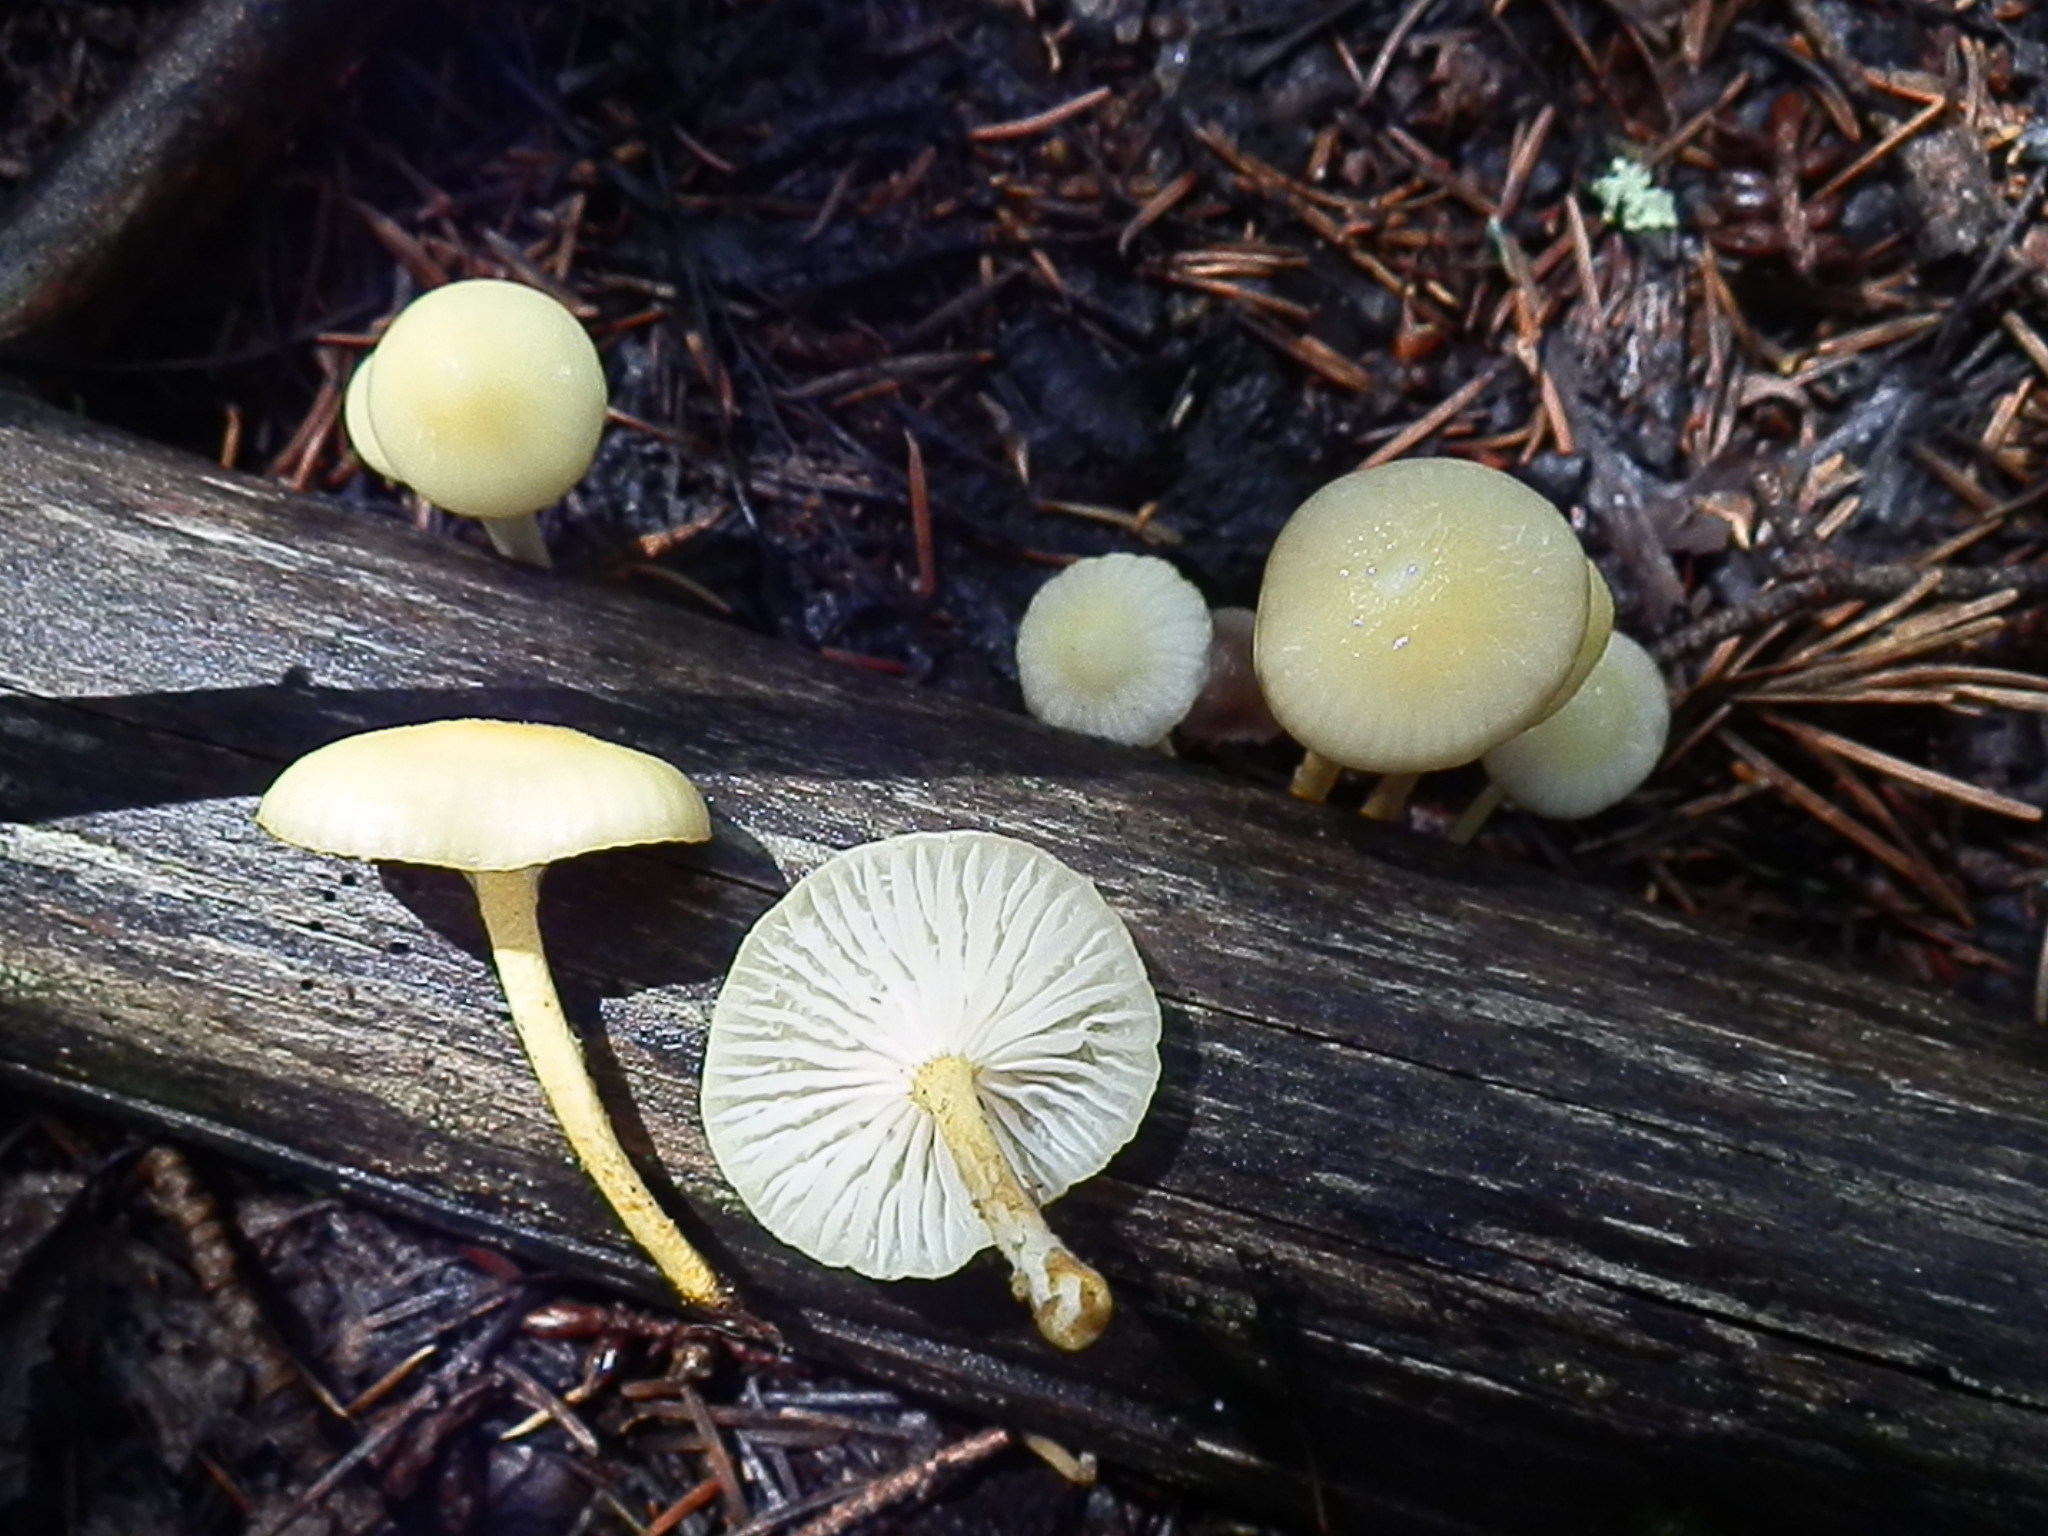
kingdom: Fungi
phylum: Basidiomycota
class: Agaricomycetes
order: Agaricales
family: Physalacriaceae
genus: Cyptotrama
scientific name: Cyptotrama chrysopepla
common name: Golden coincap
